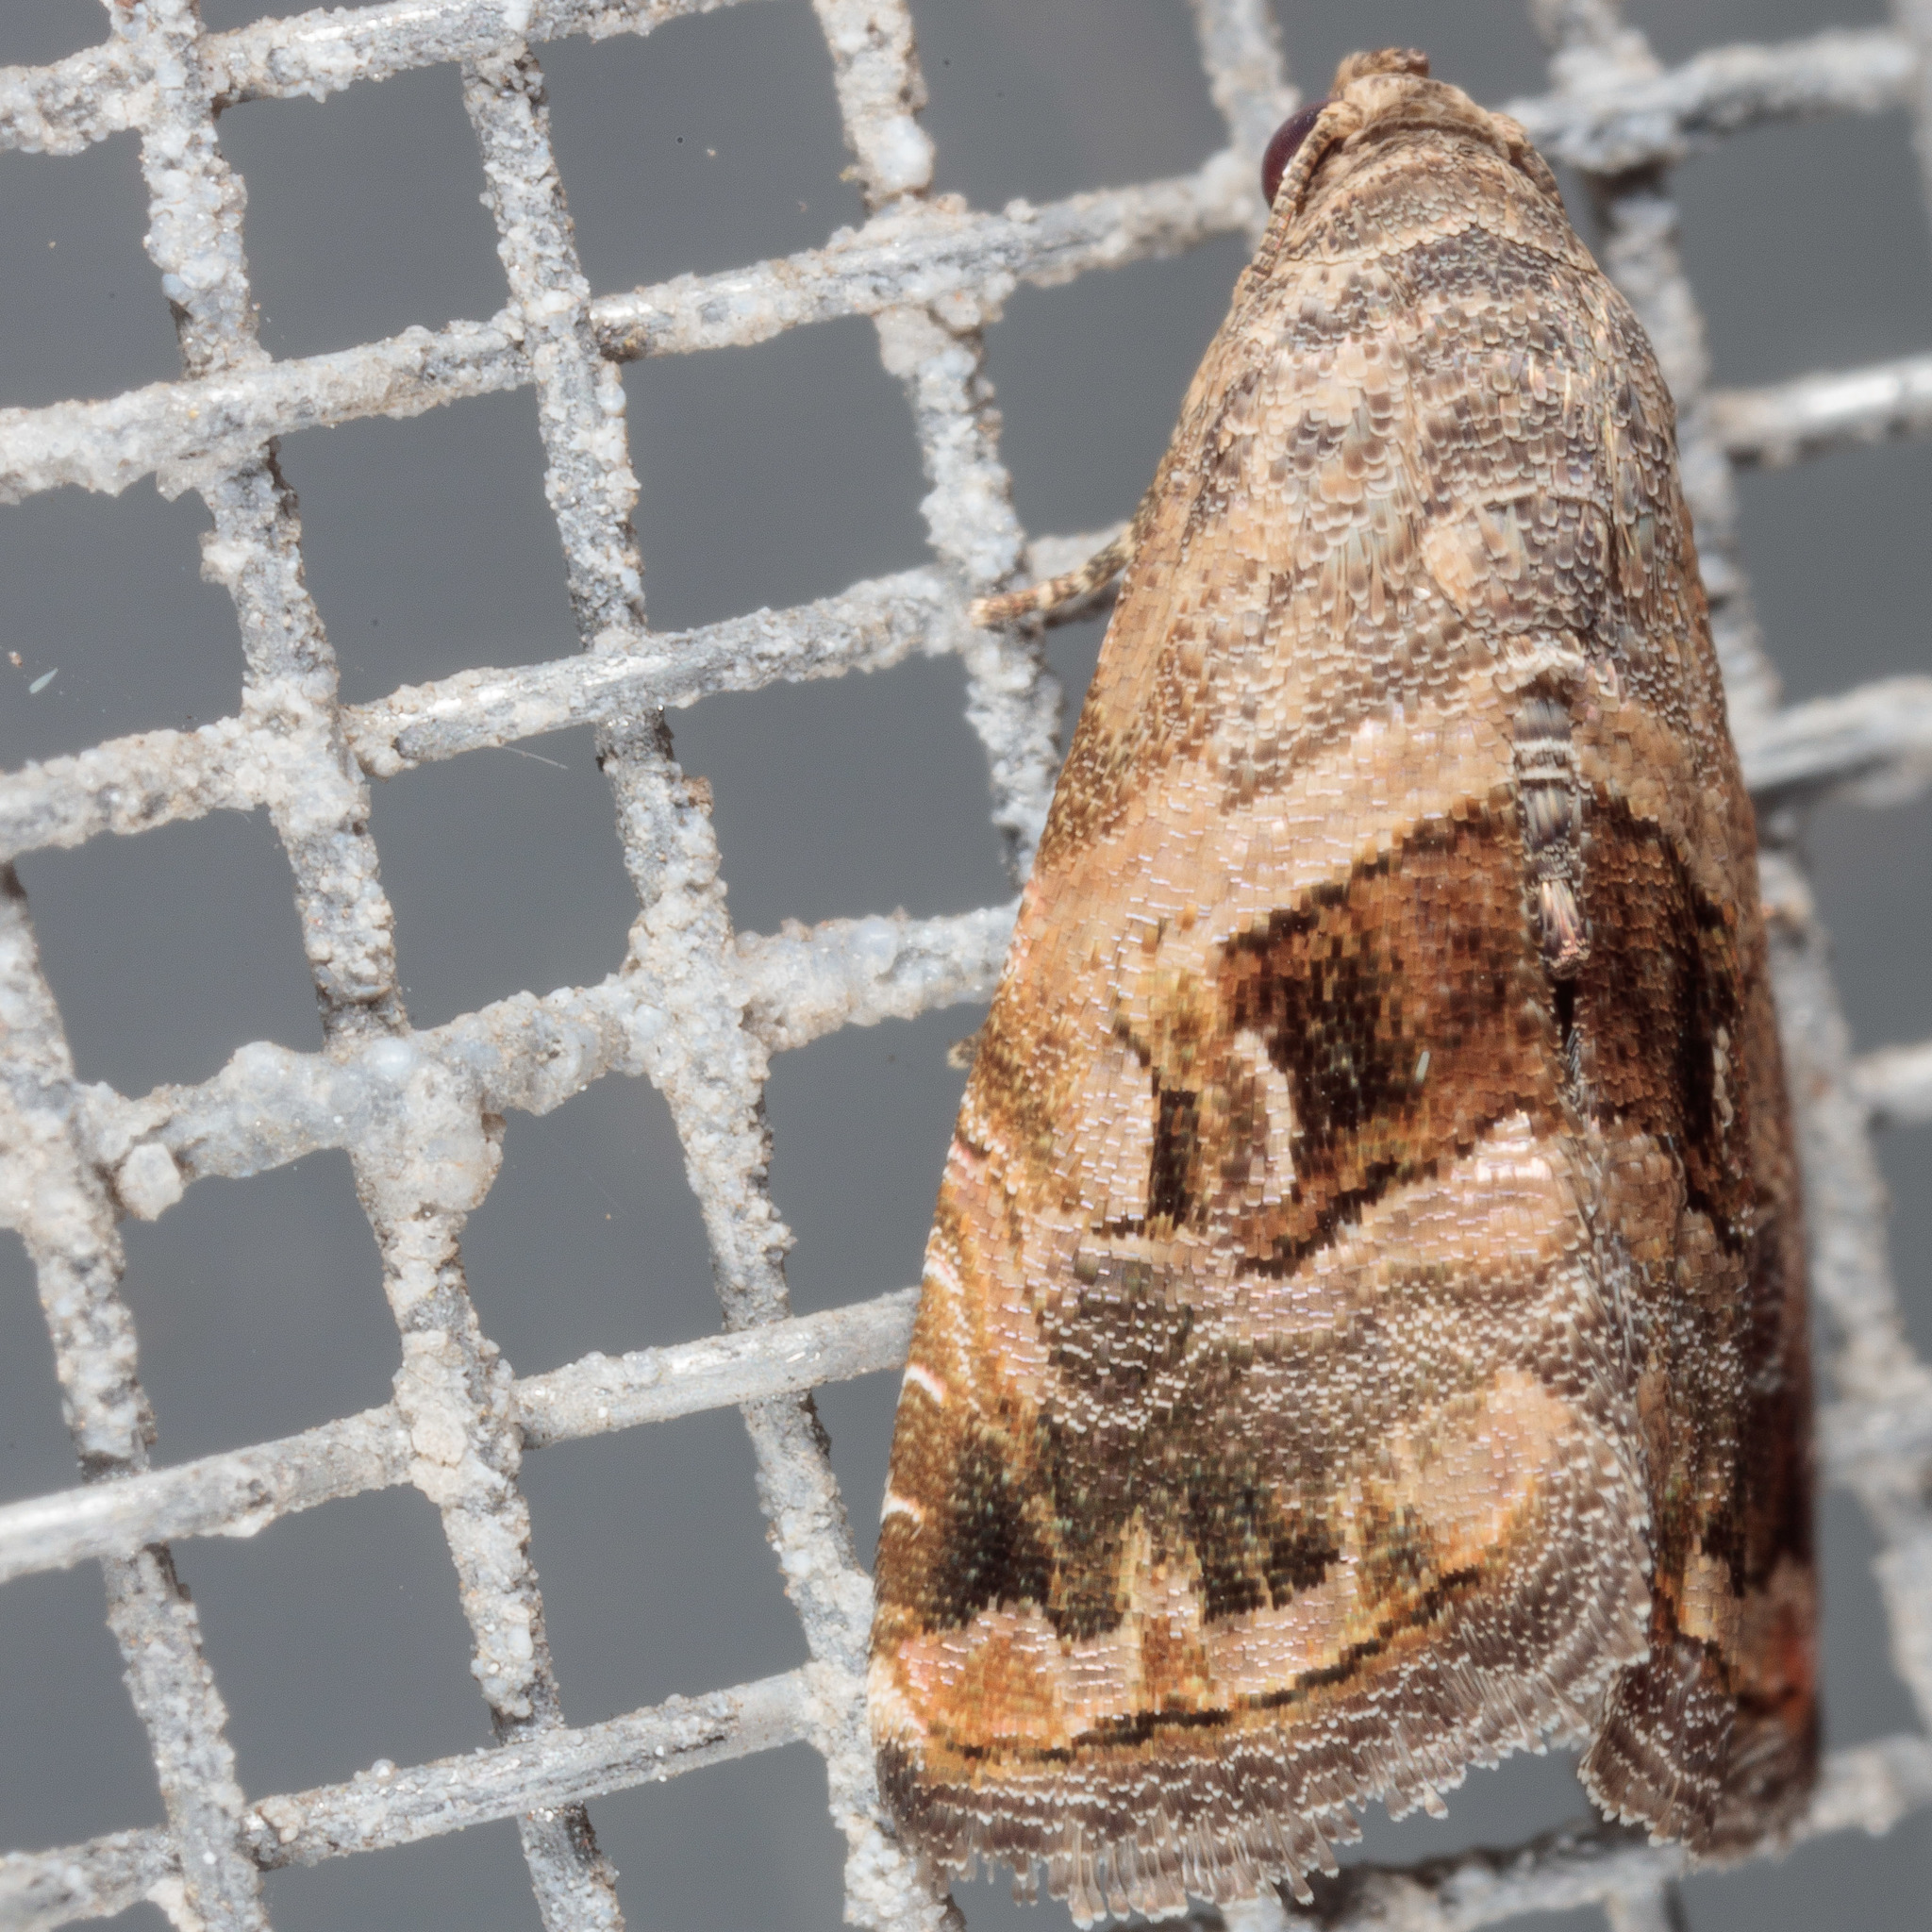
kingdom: Animalia
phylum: Arthropoda
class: Insecta
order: Lepidoptera
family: Noctuidae
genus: Tripudia
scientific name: Tripudia quadrifera
